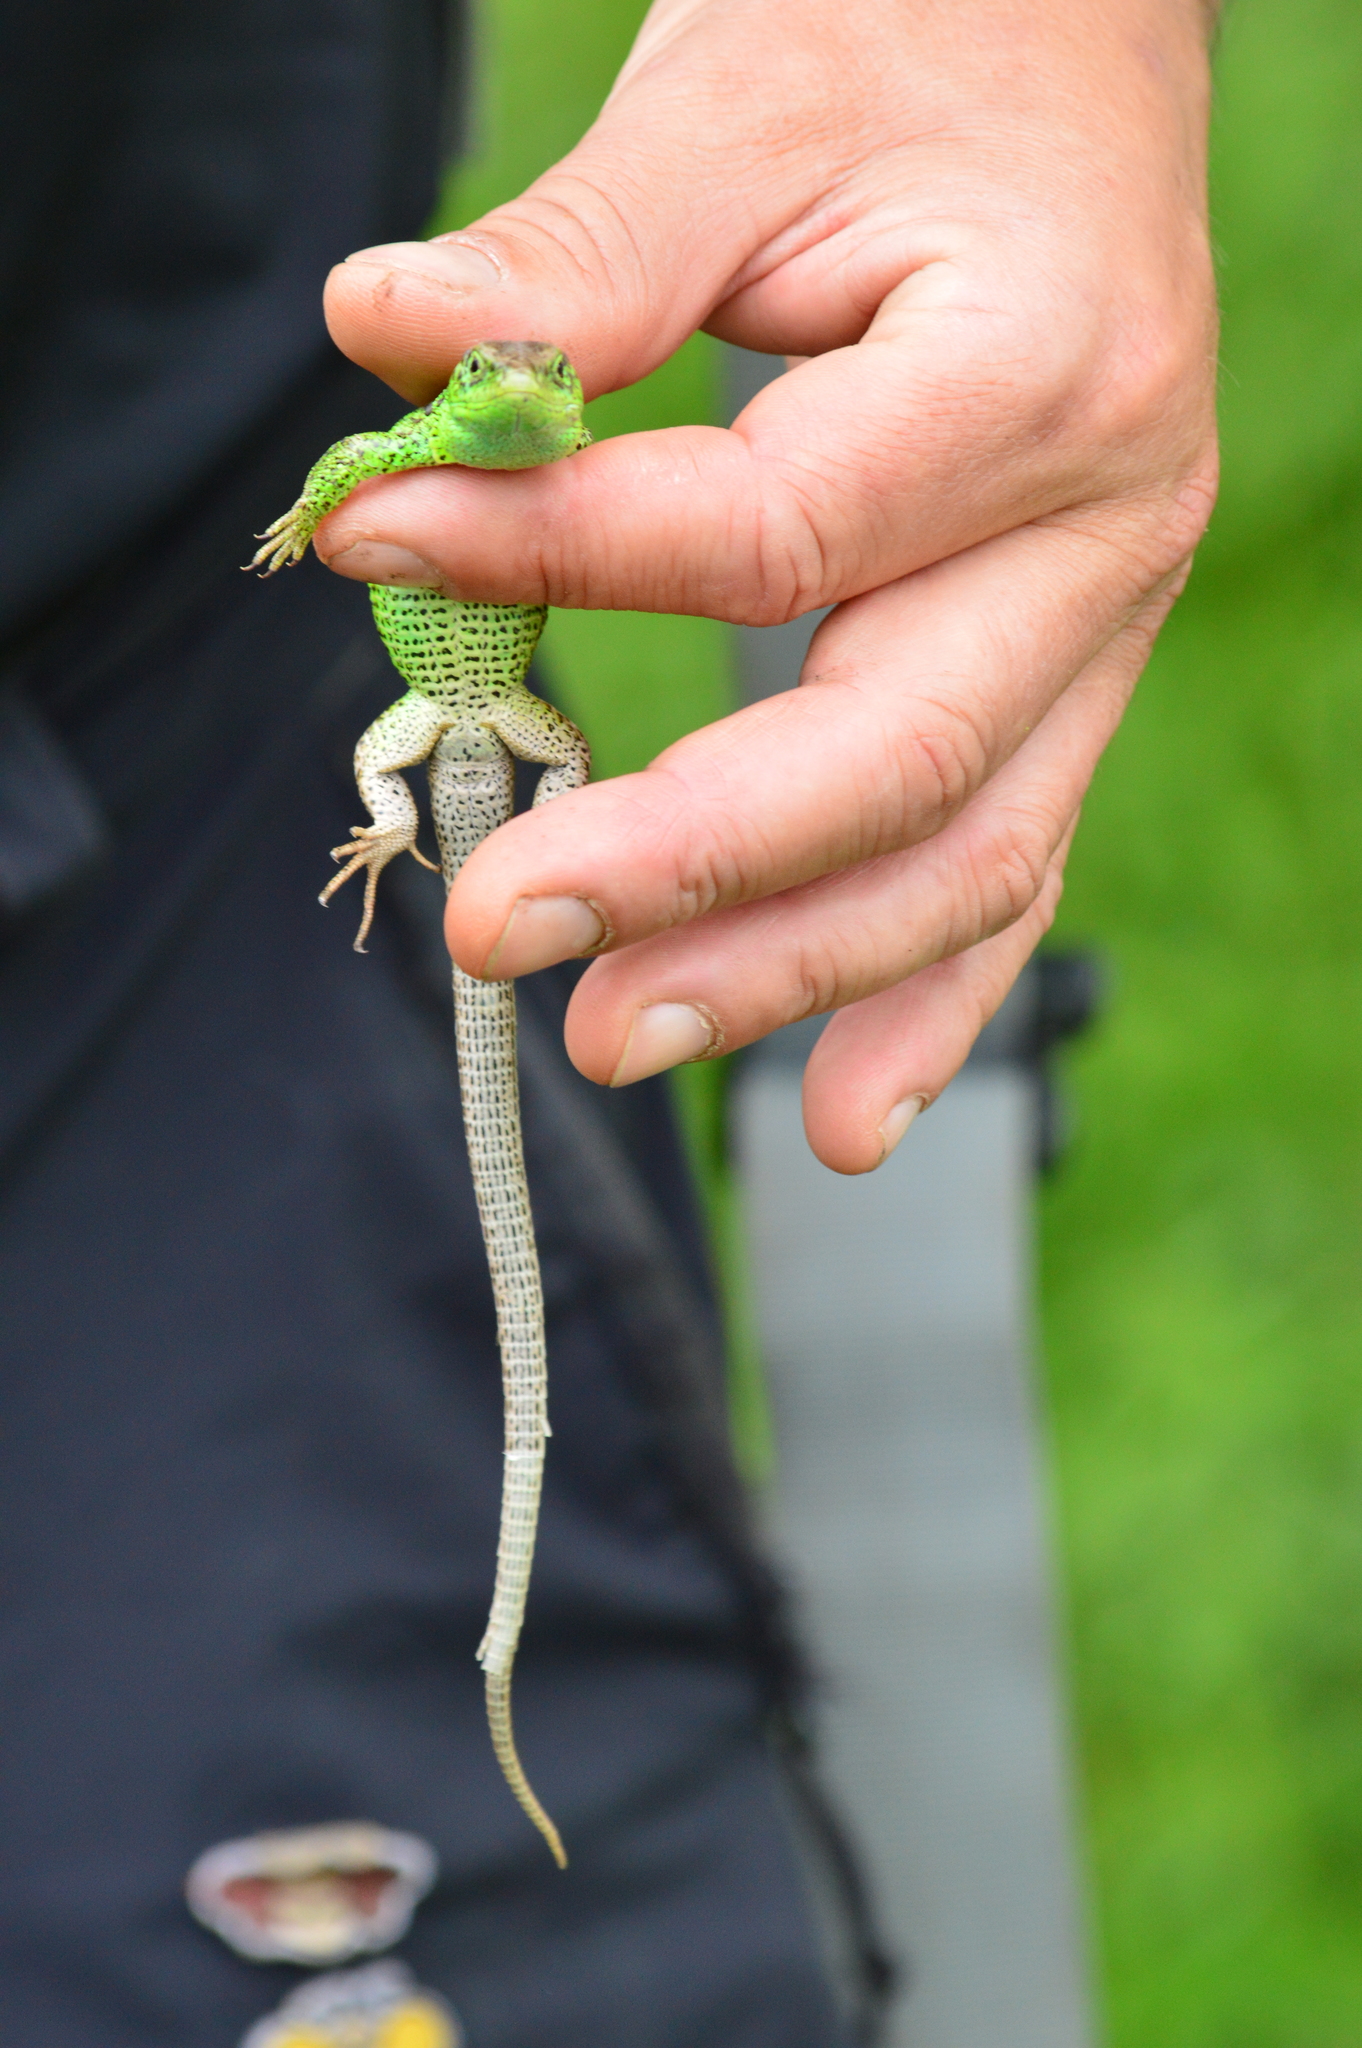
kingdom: Animalia
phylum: Chordata
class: Squamata
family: Lacertidae
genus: Lacerta
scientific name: Lacerta agilis
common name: Sand lizard
